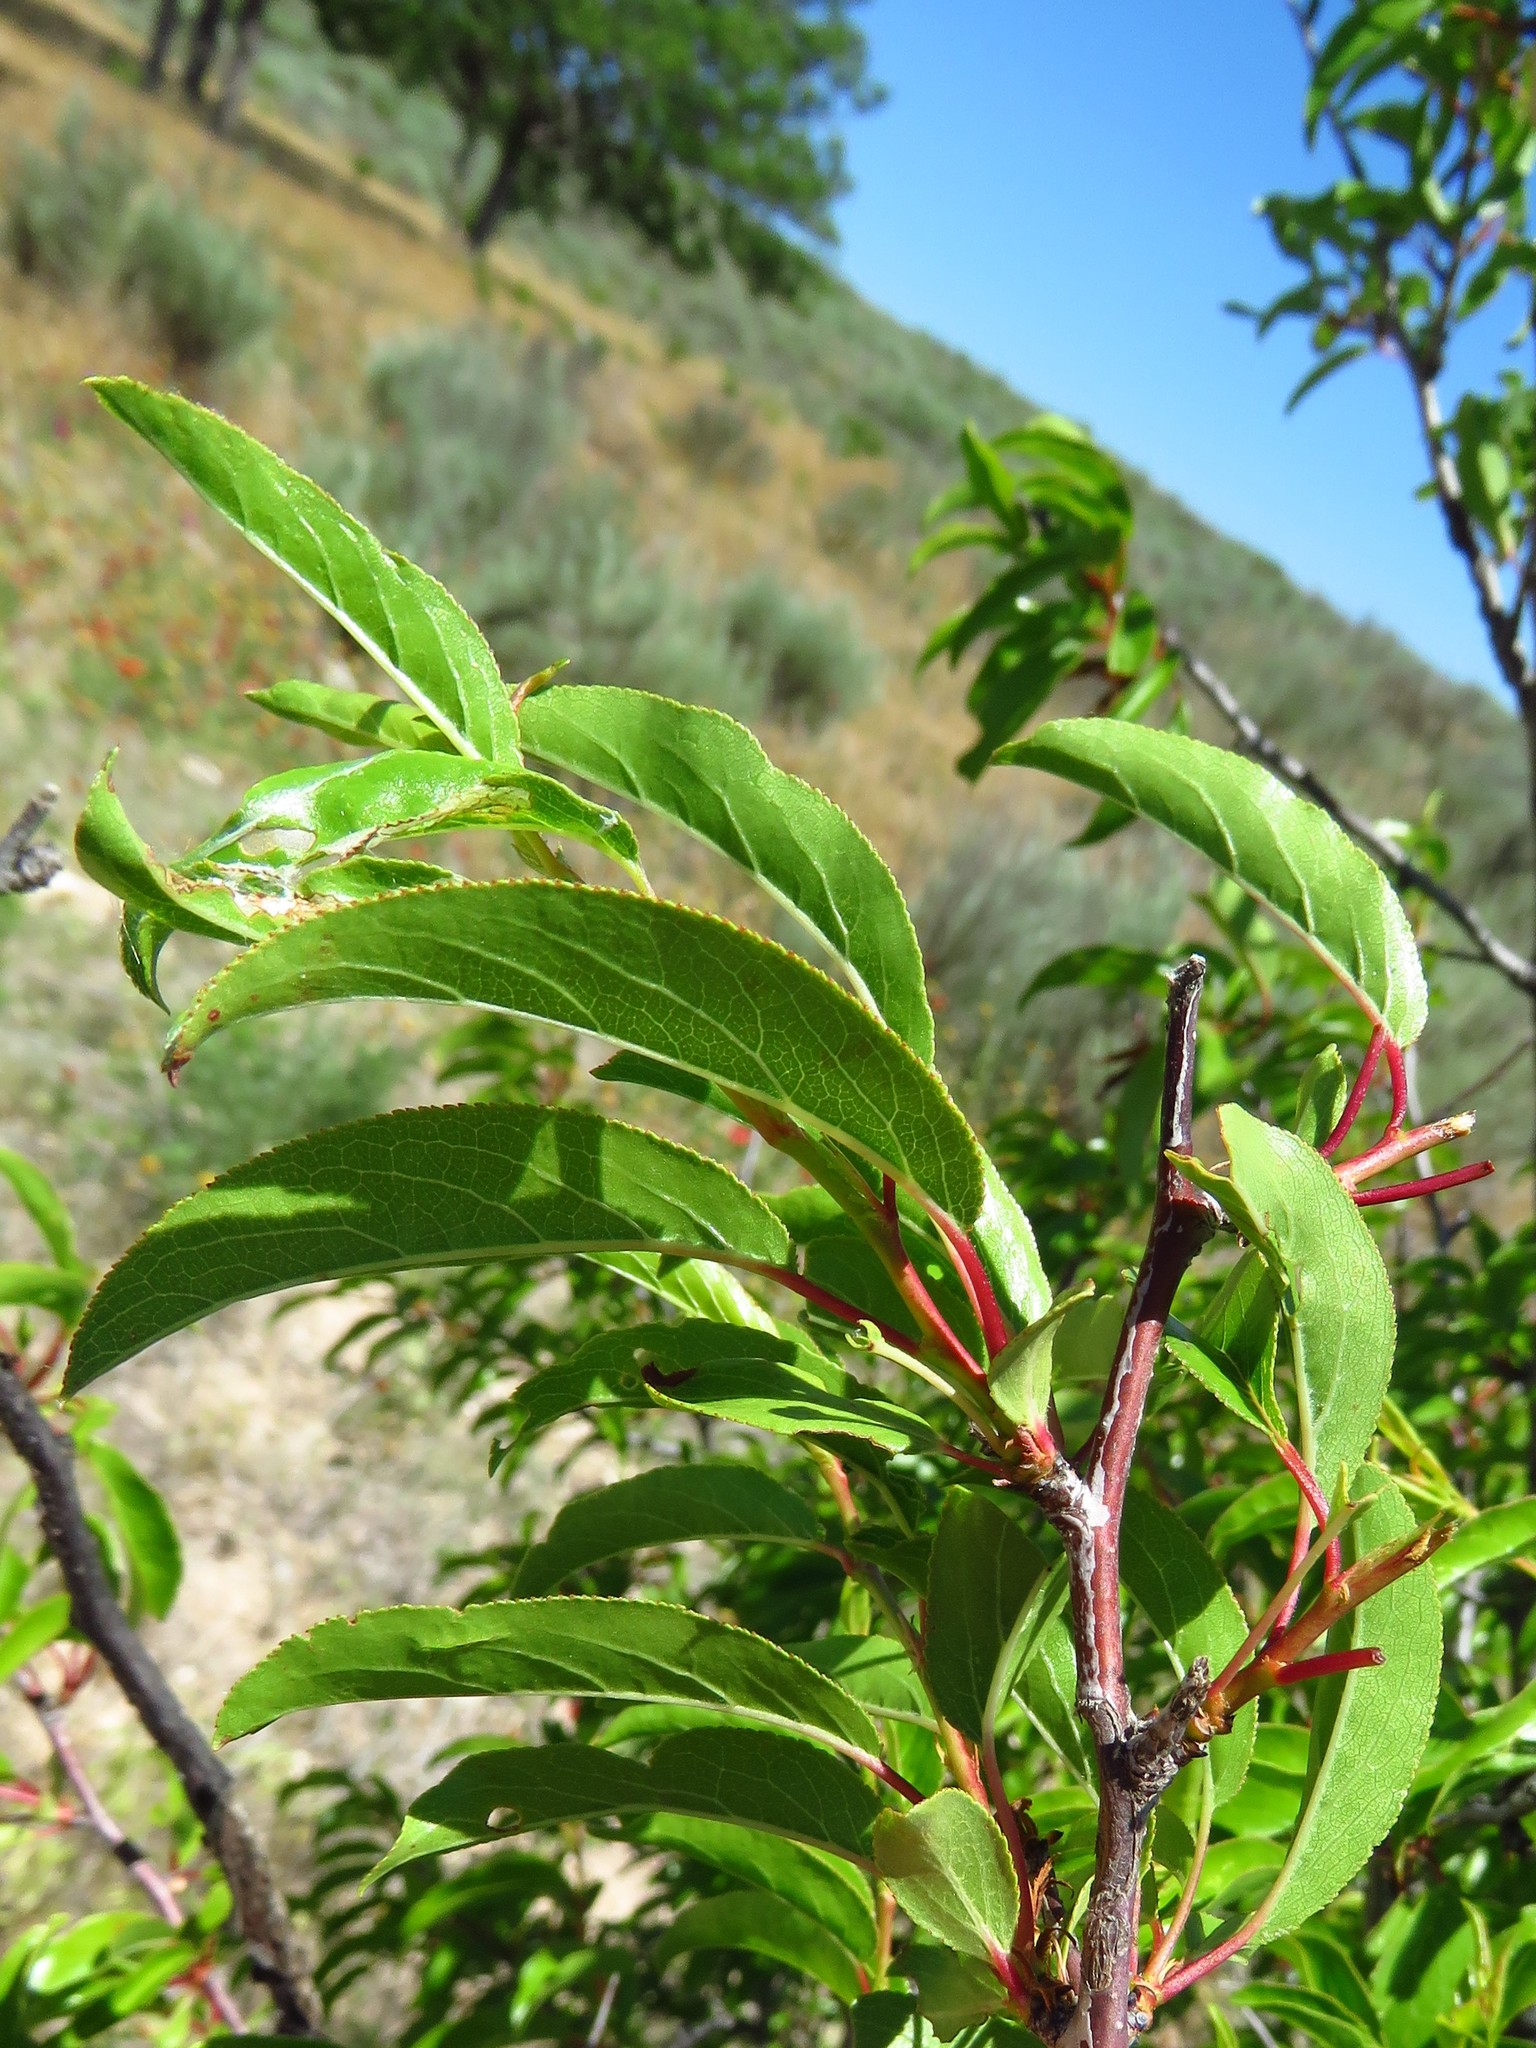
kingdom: Plantae
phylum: Tracheophyta
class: Magnoliopsida
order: Rosales
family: Rosaceae
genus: Prunus
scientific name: Prunus angustifolia
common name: Cherokee plum
